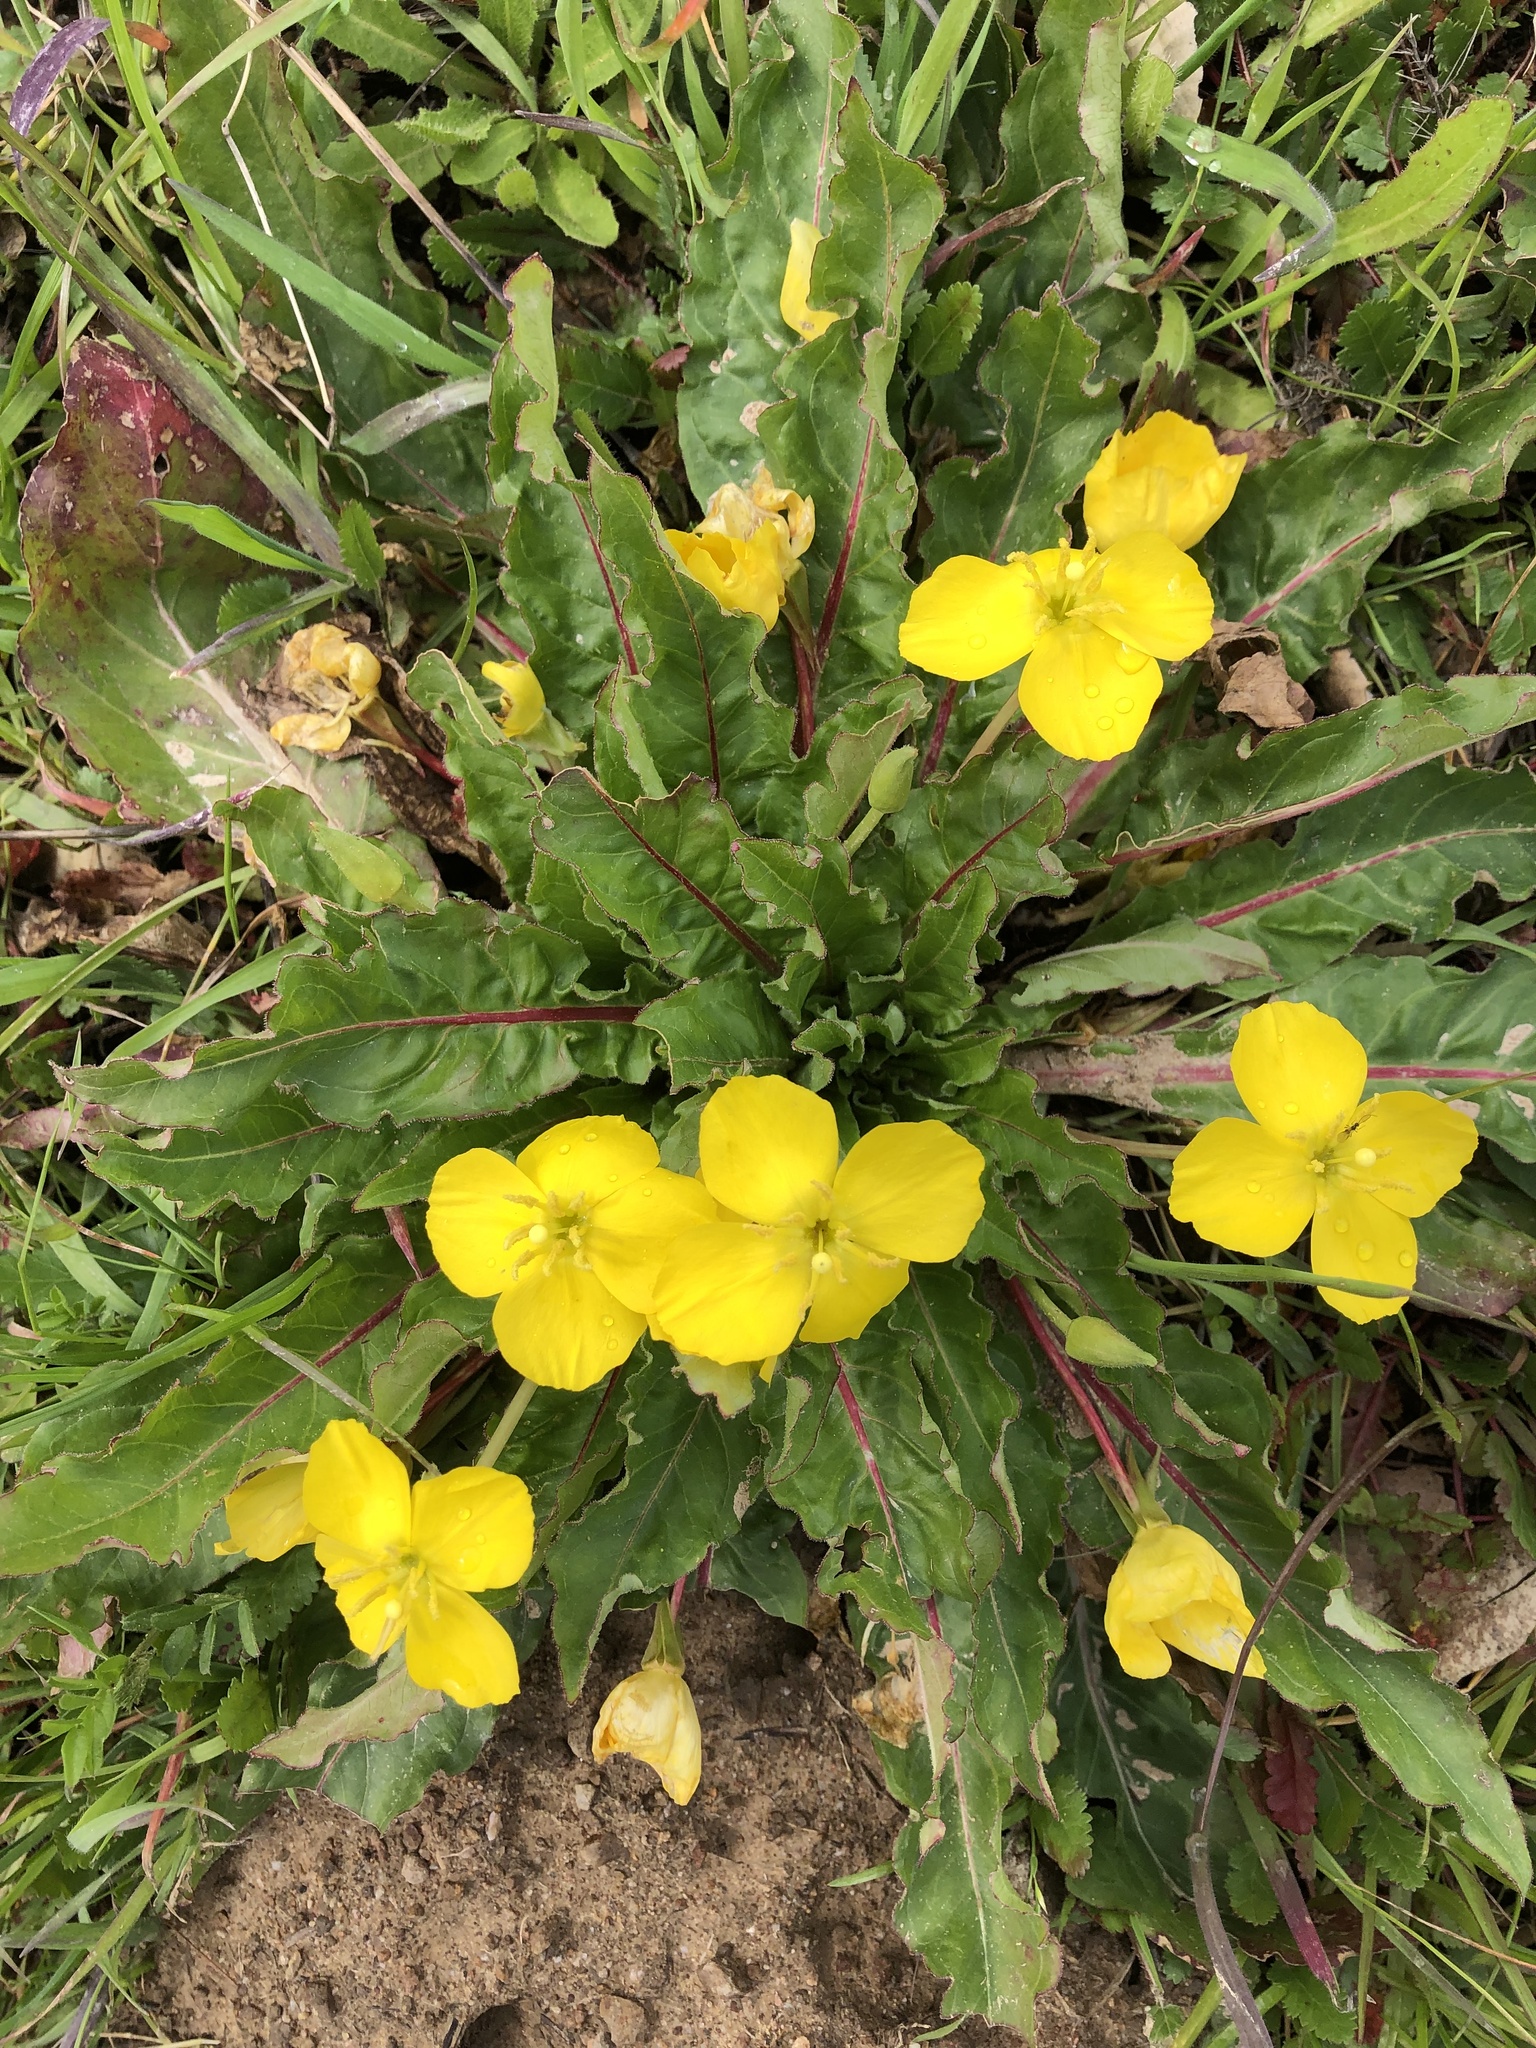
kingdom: Plantae
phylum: Tracheophyta
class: Magnoliopsida
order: Myrtales
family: Onagraceae
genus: Taraxia
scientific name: Taraxia ovata
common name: Goldeneggs
